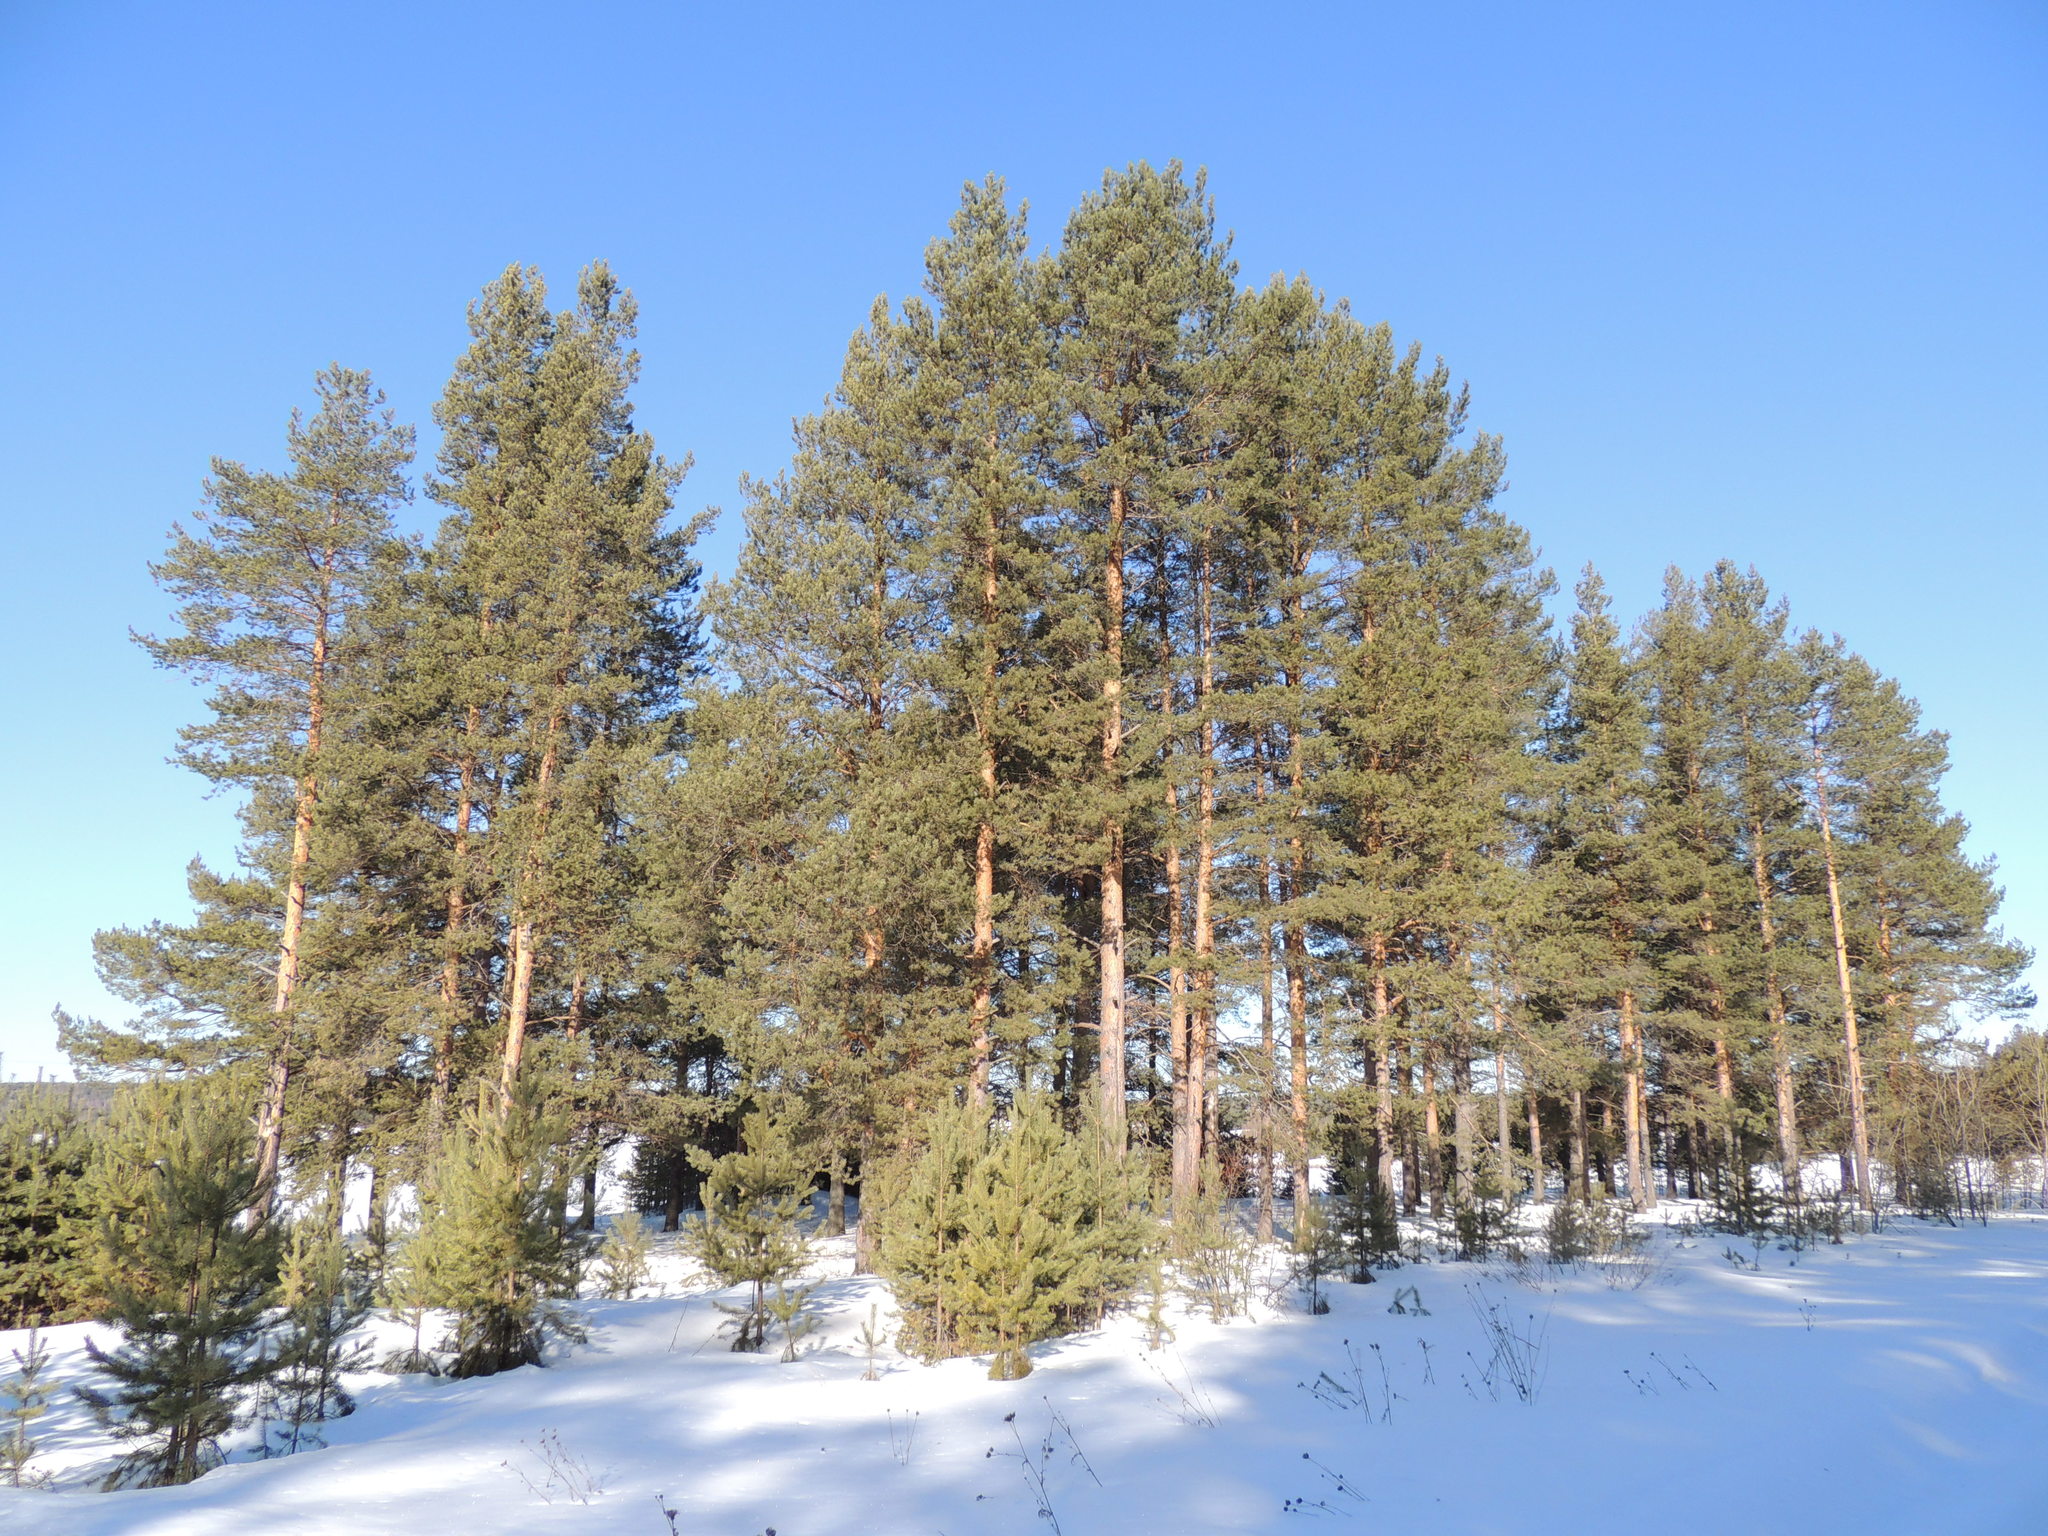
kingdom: Plantae
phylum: Tracheophyta
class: Pinopsida
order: Pinales
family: Pinaceae
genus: Pinus
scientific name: Pinus sylvestris
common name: Scots pine
